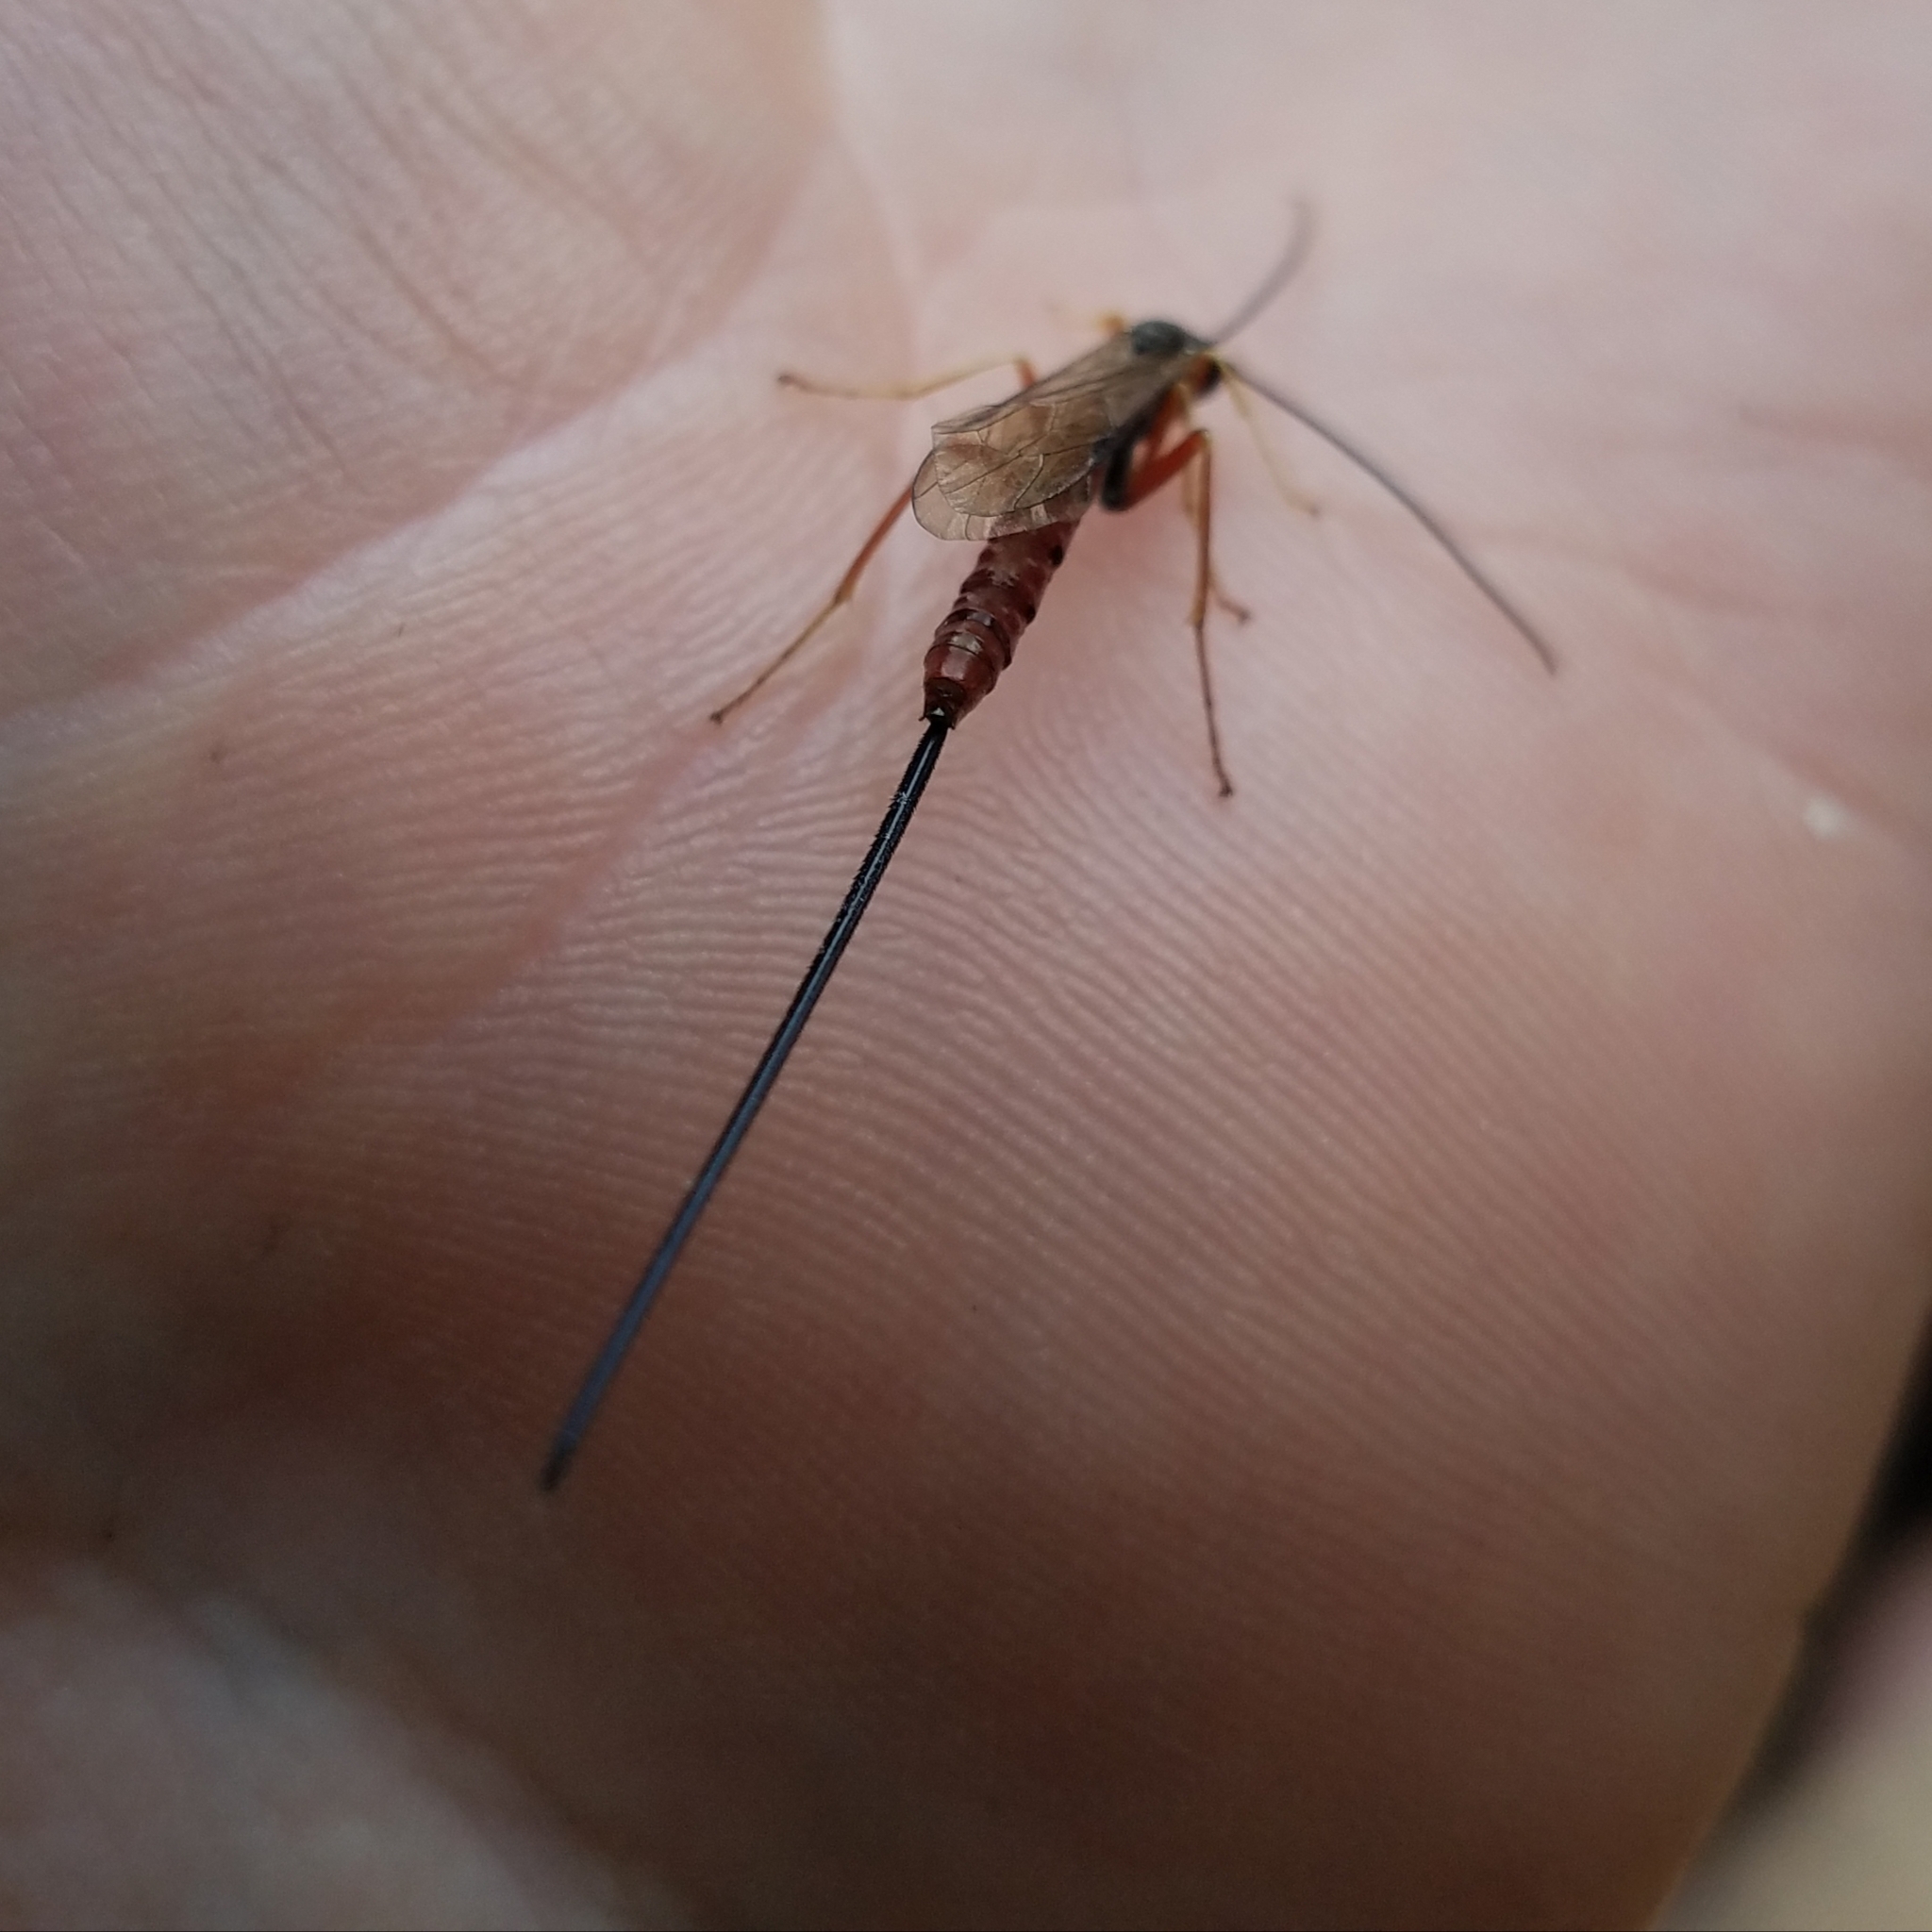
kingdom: Animalia
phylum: Arthropoda
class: Insecta
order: Hymenoptera
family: Ichneumonidae
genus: Dolichomitus
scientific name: Dolichomitus irritator
